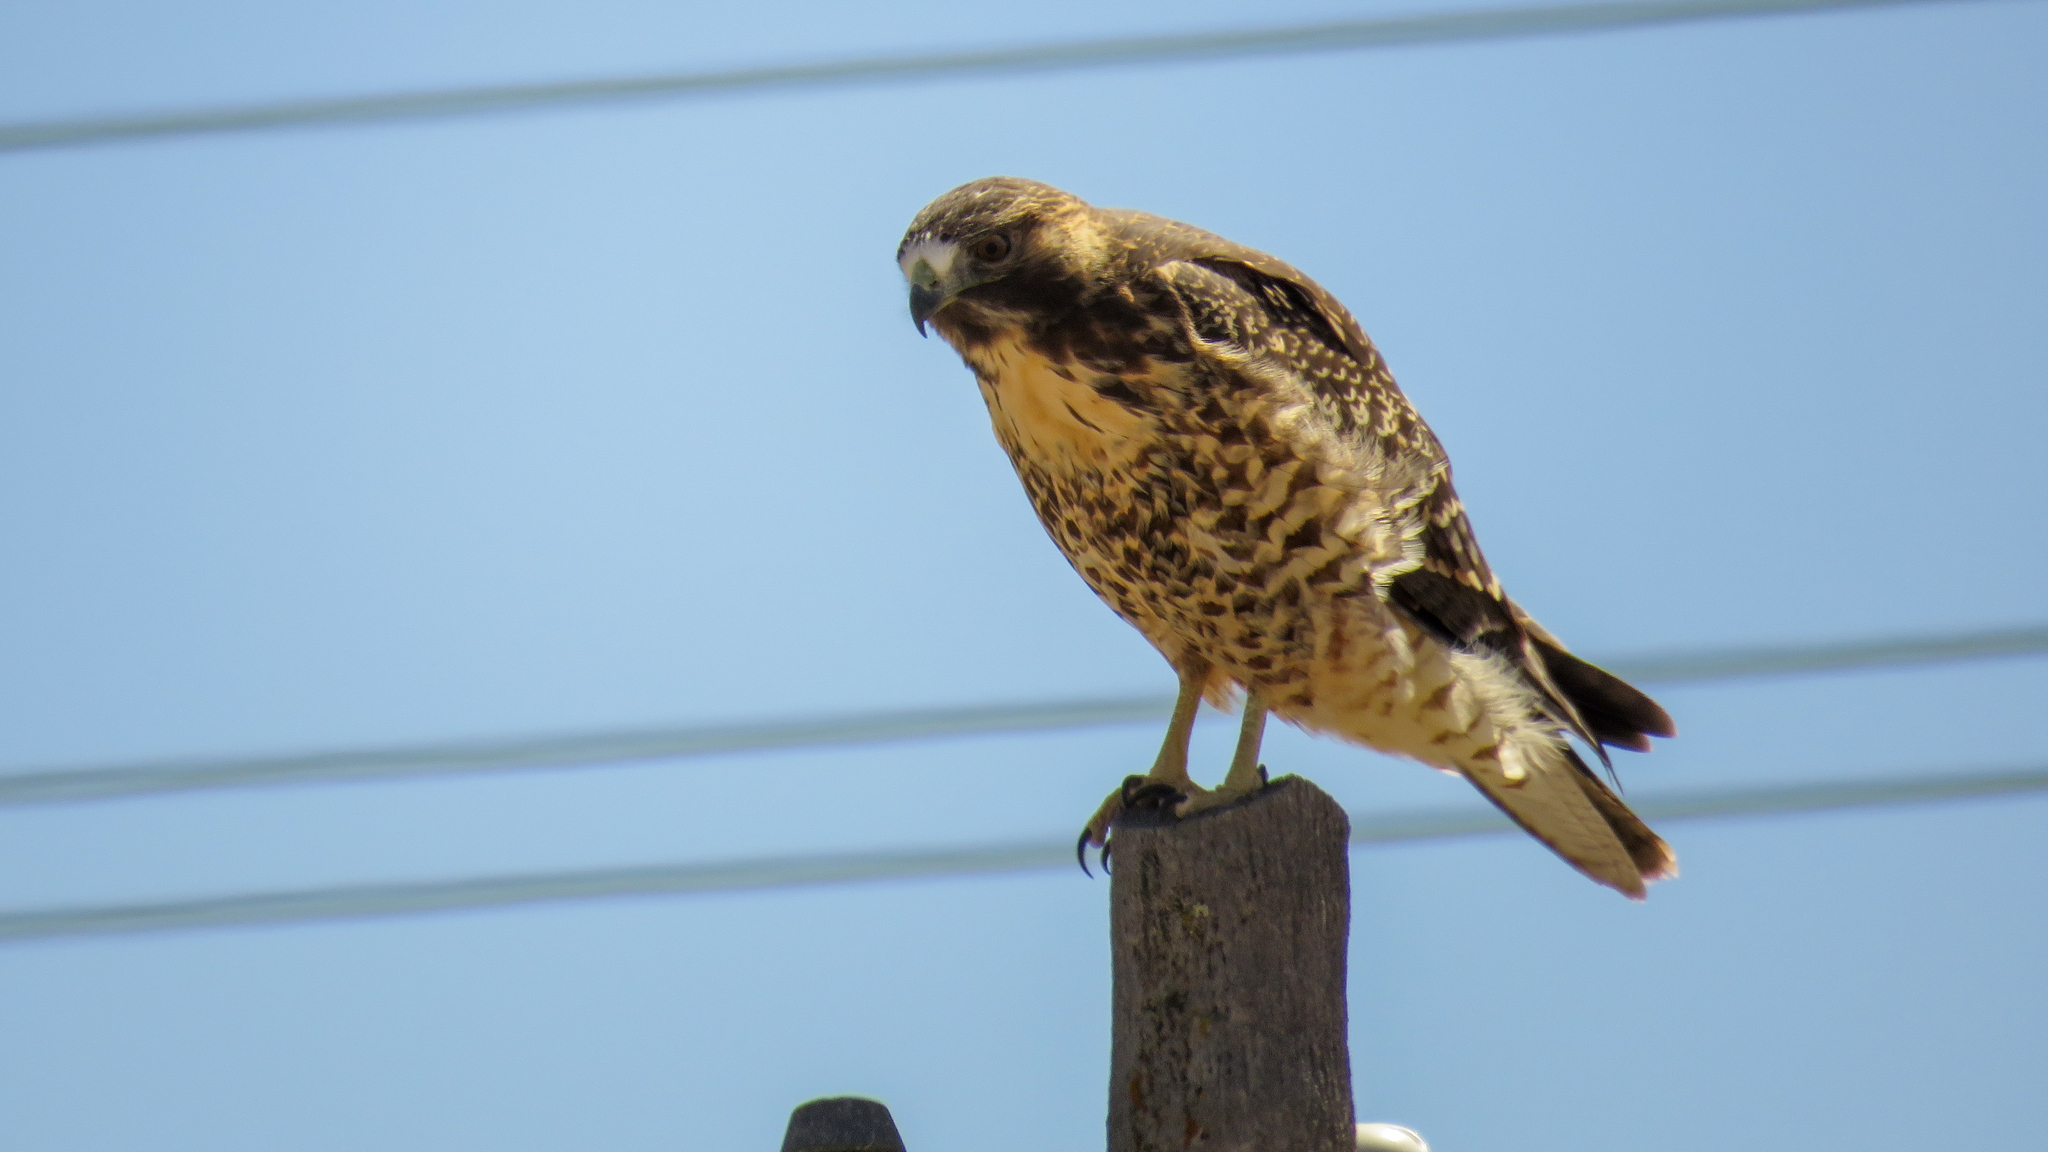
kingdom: Animalia
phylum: Chordata
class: Aves
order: Accipitriformes
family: Accipitridae
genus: Buteo
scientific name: Buteo polyosoma
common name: Variable hawk
